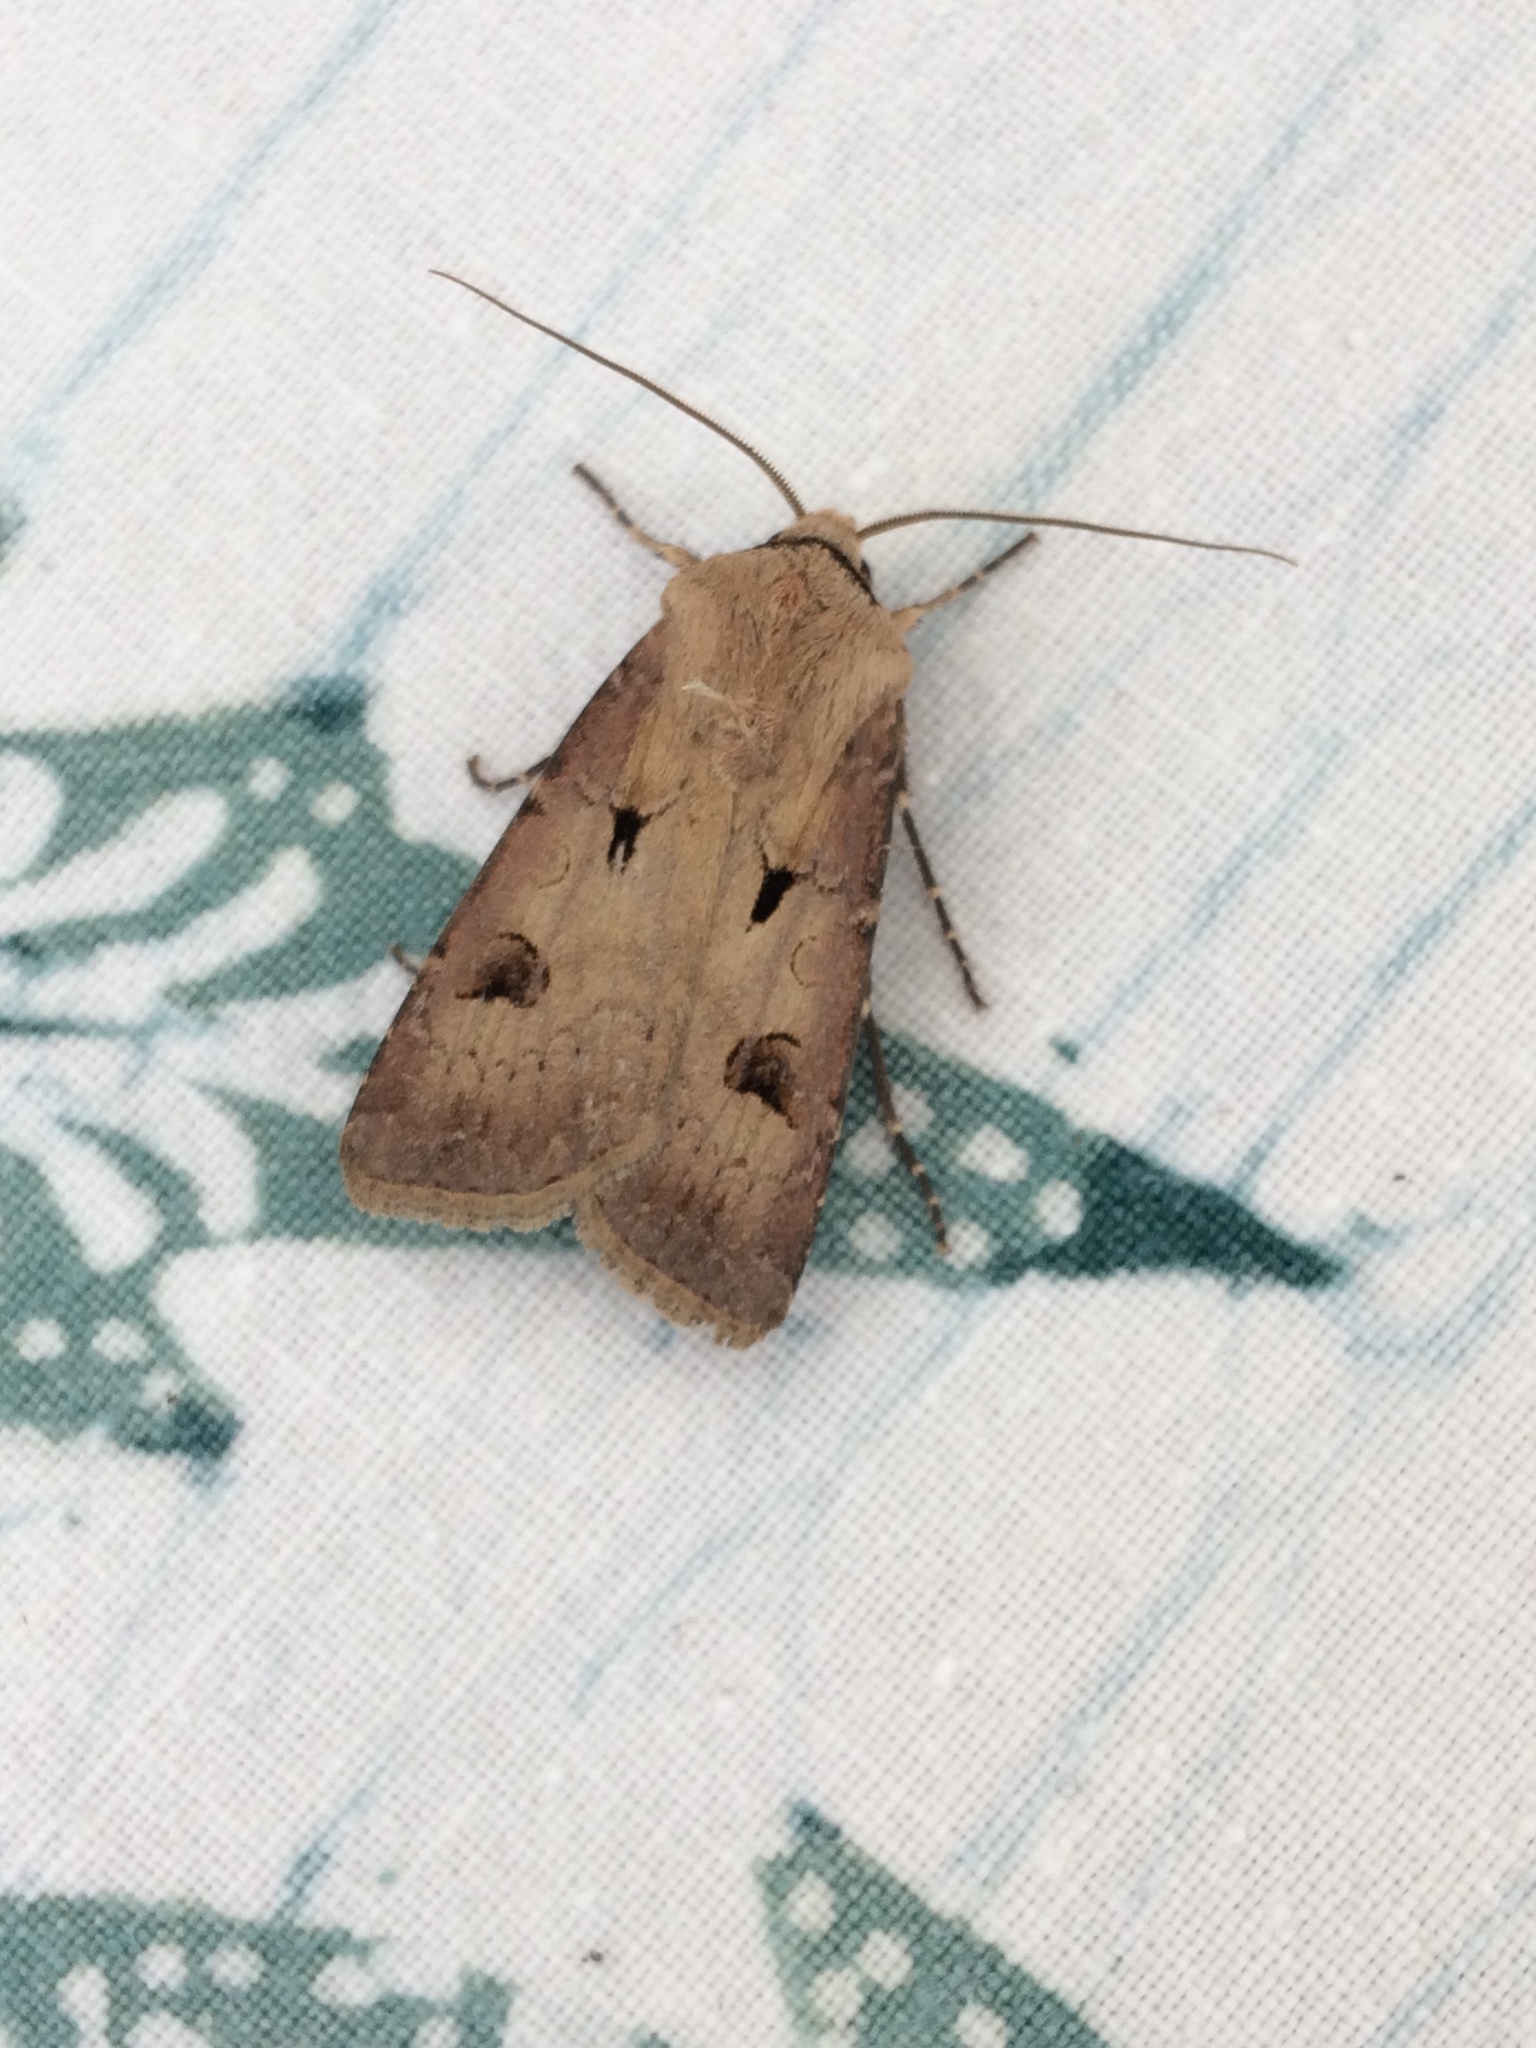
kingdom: Animalia
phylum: Arthropoda
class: Insecta
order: Lepidoptera
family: Noctuidae
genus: Agrotis
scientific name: Agrotis exclamationis
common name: Heart and dart
